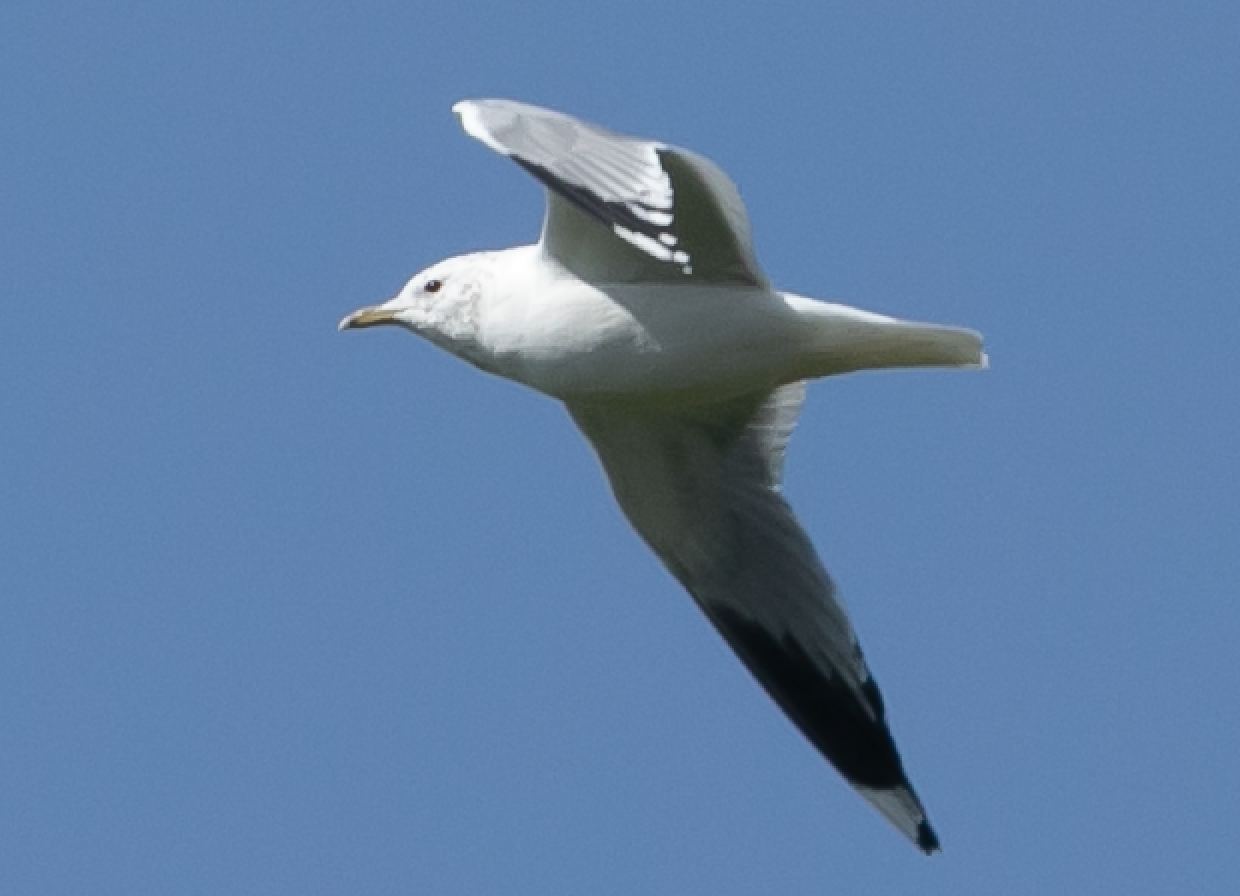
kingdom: Animalia
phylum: Chordata
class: Aves
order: Charadriiformes
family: Laridae
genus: Larus
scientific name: Larus canus
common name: Mew gull
